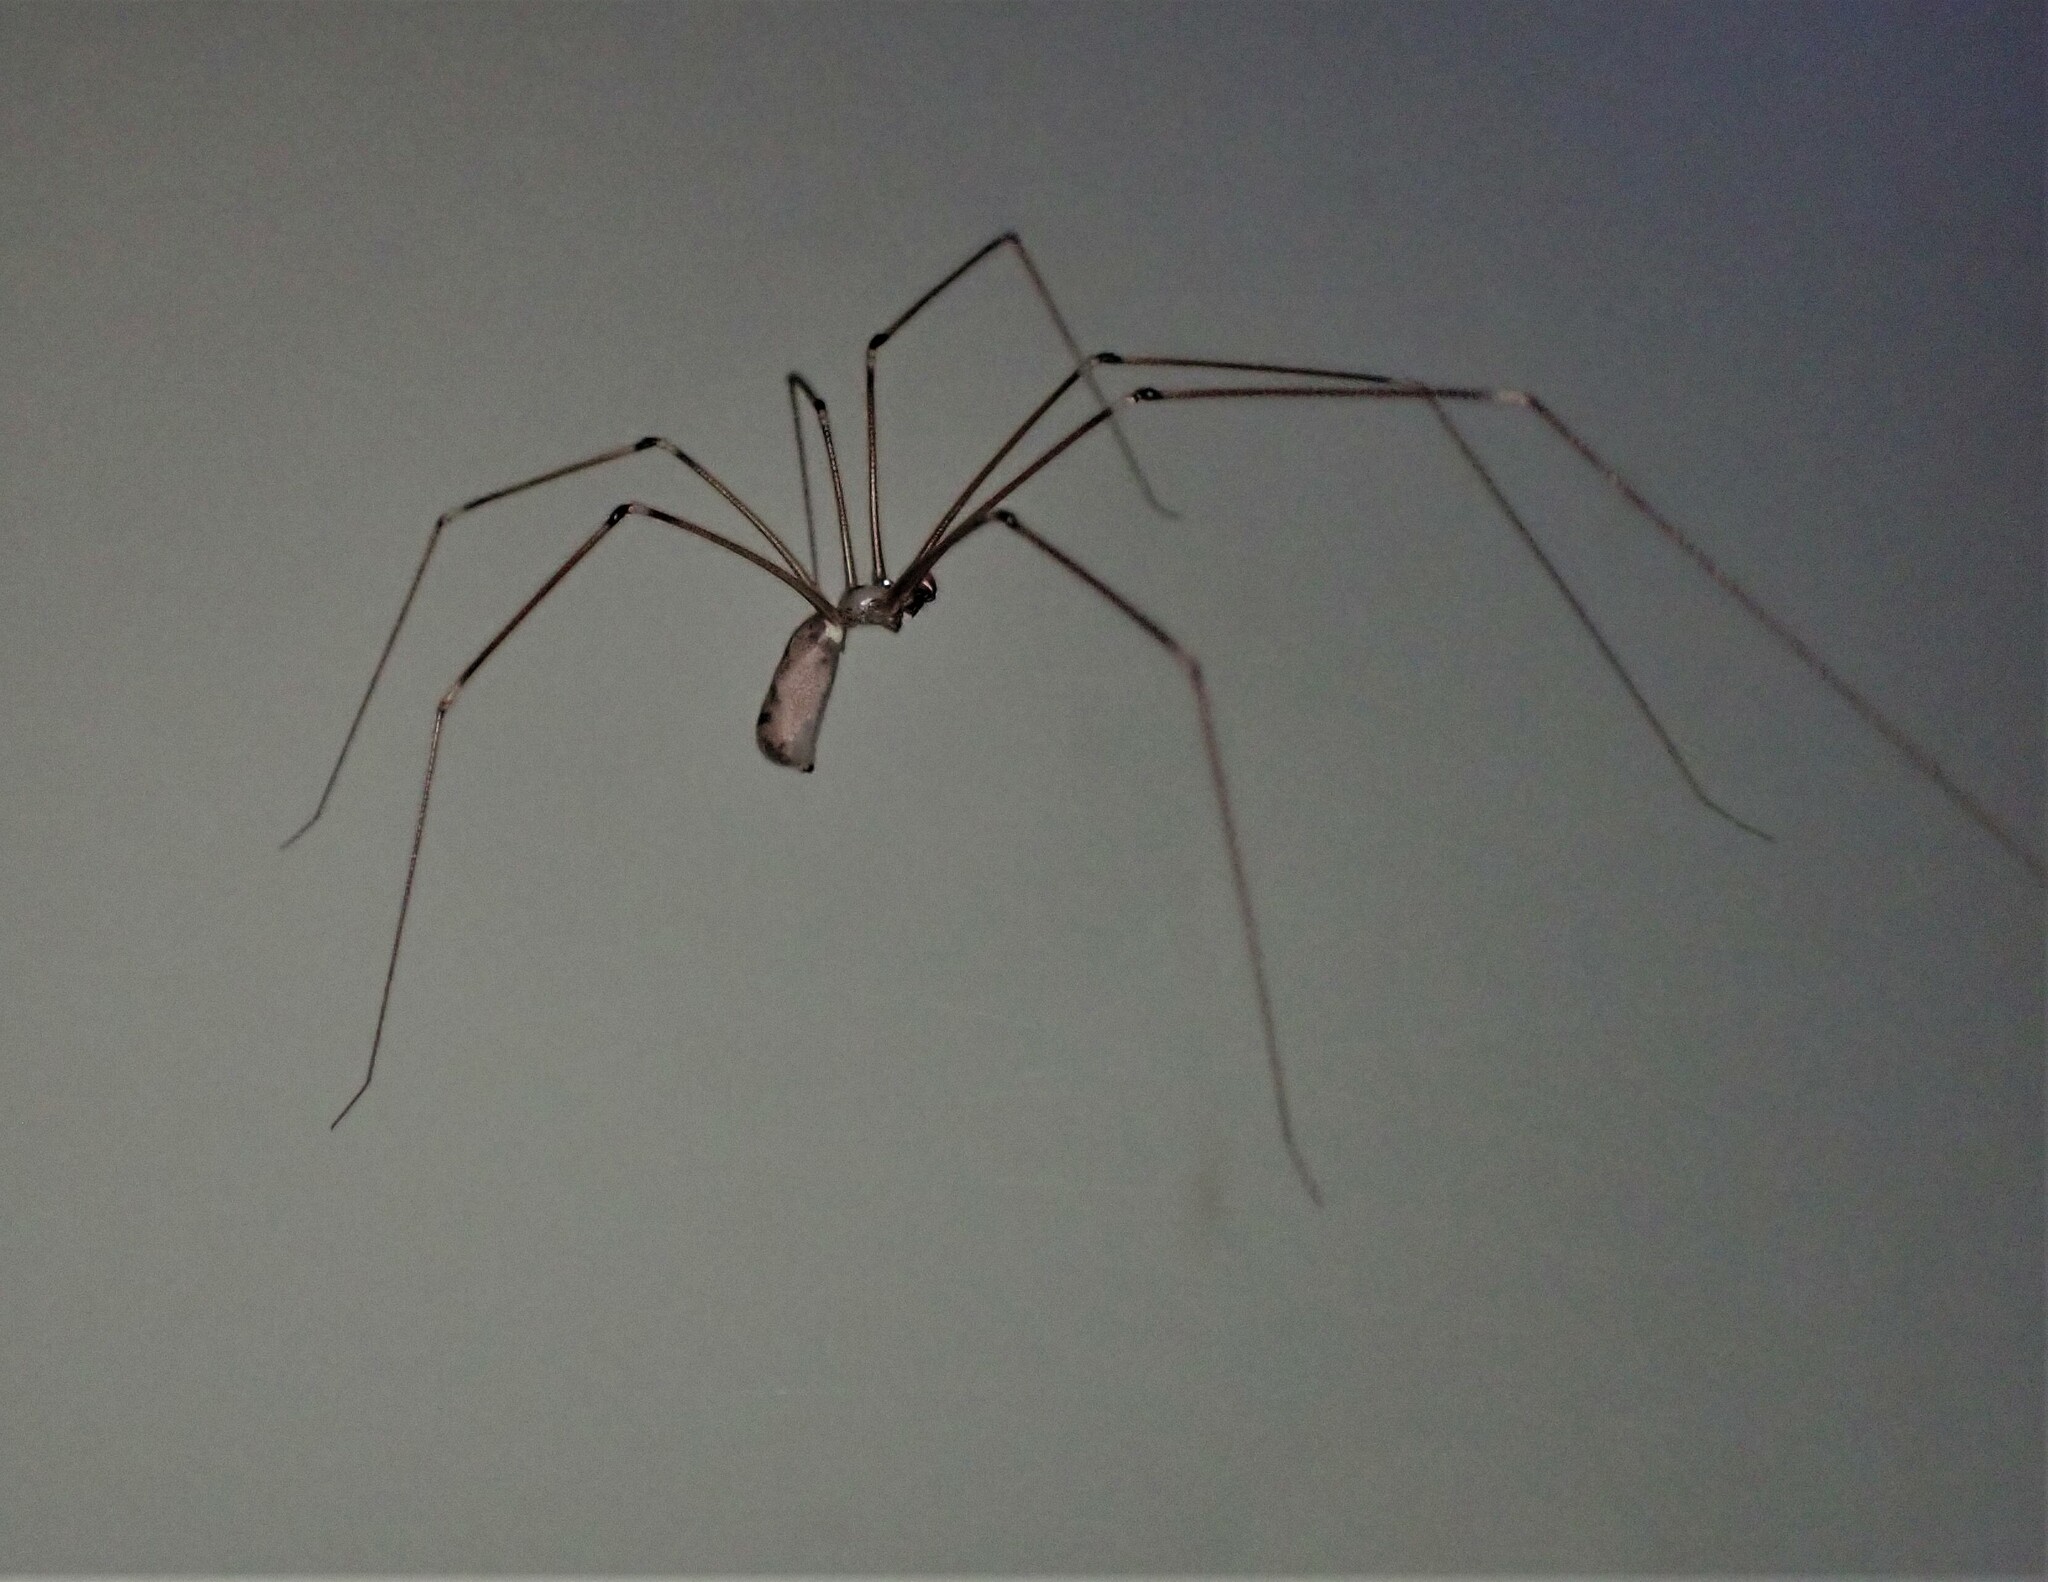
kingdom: Animalia
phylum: Arthropoda
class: Arachnida
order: Araneae
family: Pholcidae
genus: Pholcus
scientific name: Pholcus phalangioides
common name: Longbodied cellar spider
